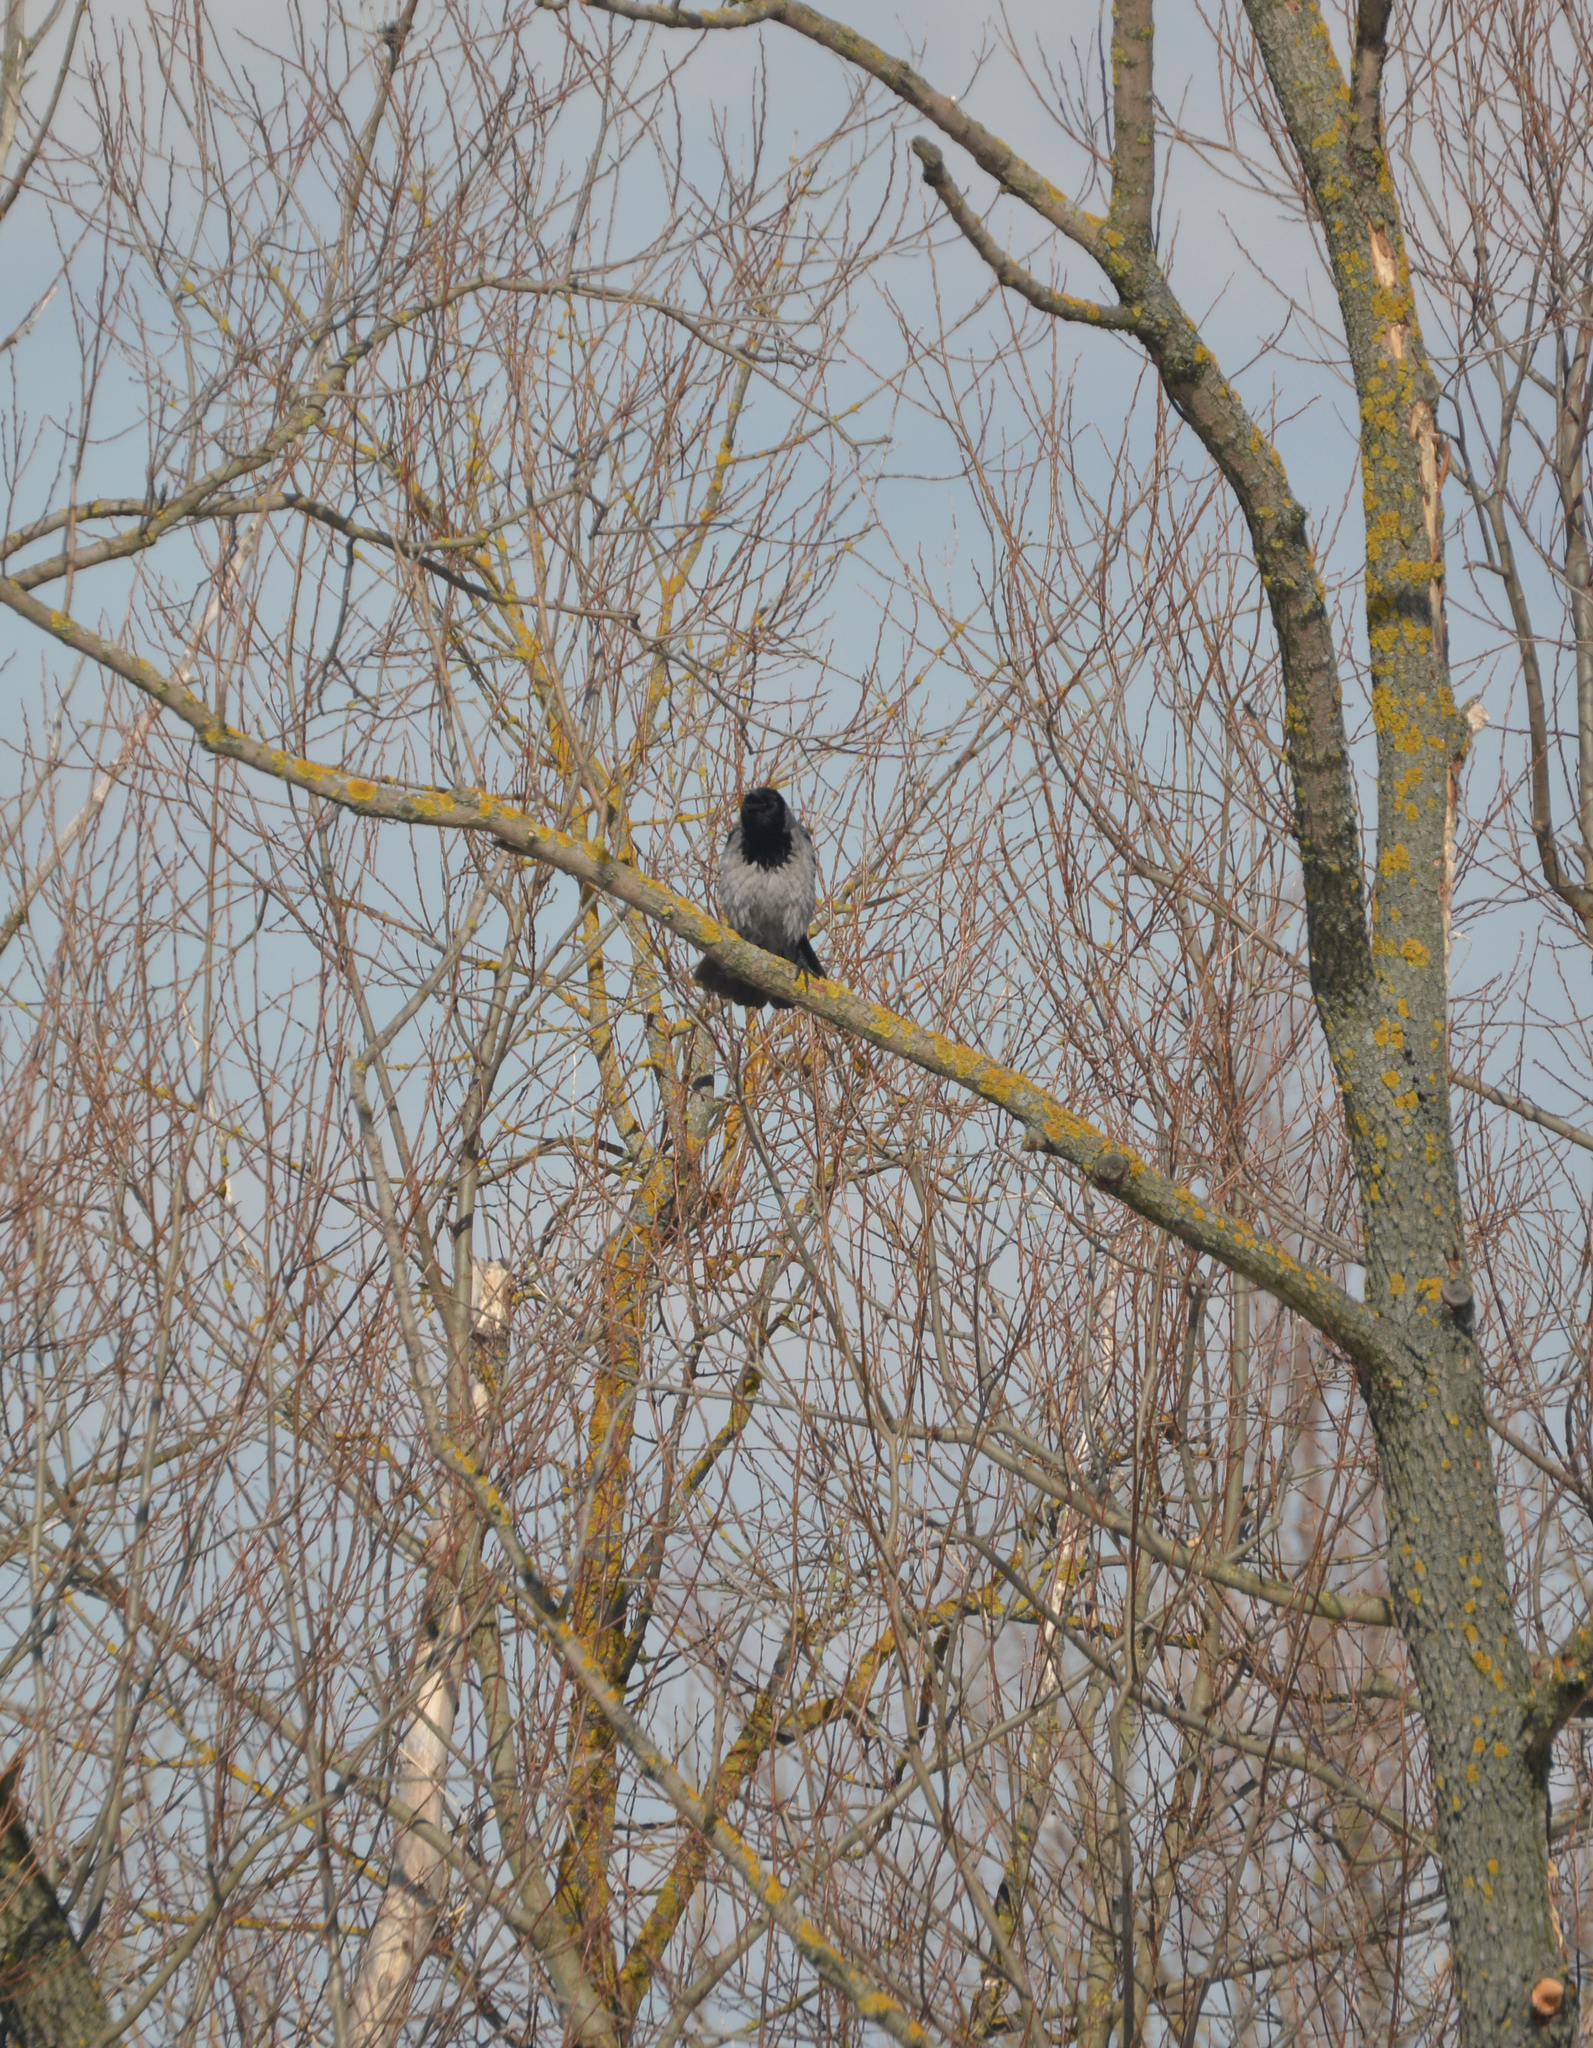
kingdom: Animalia
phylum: Chordata
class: Aves
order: Passeriformes
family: Corvidae
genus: Corvus
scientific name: Corvus cornix
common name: Hooded crow
